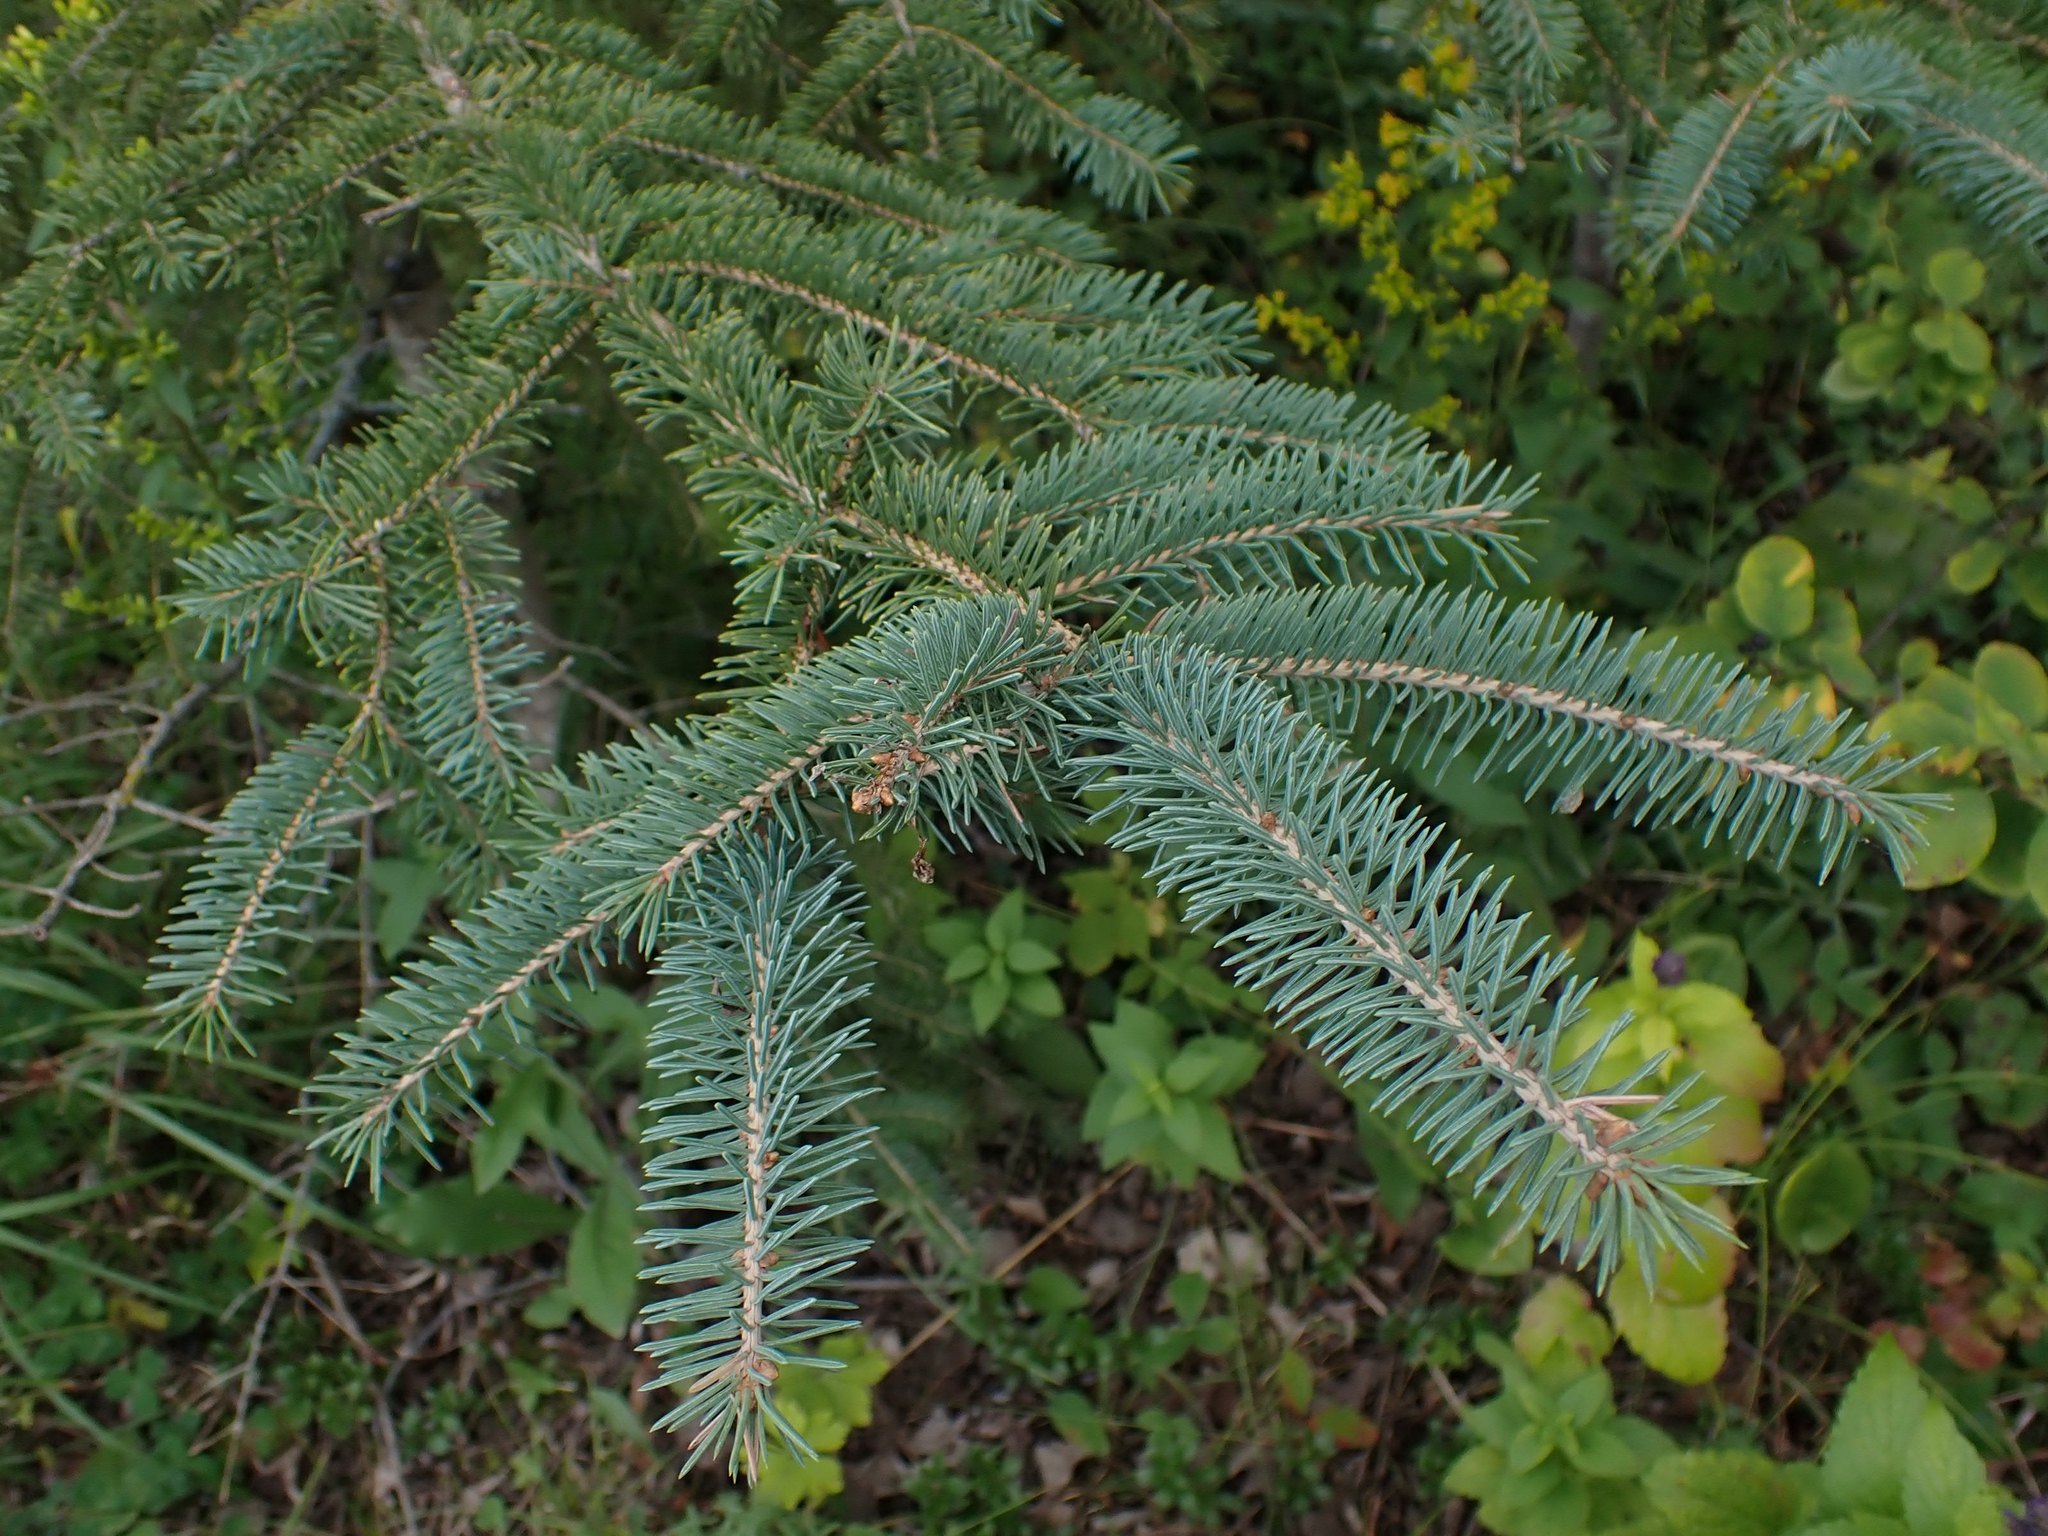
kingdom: Plantae
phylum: Tracheophyta
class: Pinopsida
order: Pinales
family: Pinaceae
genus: Picea
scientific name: Picea glauca
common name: White spruce
